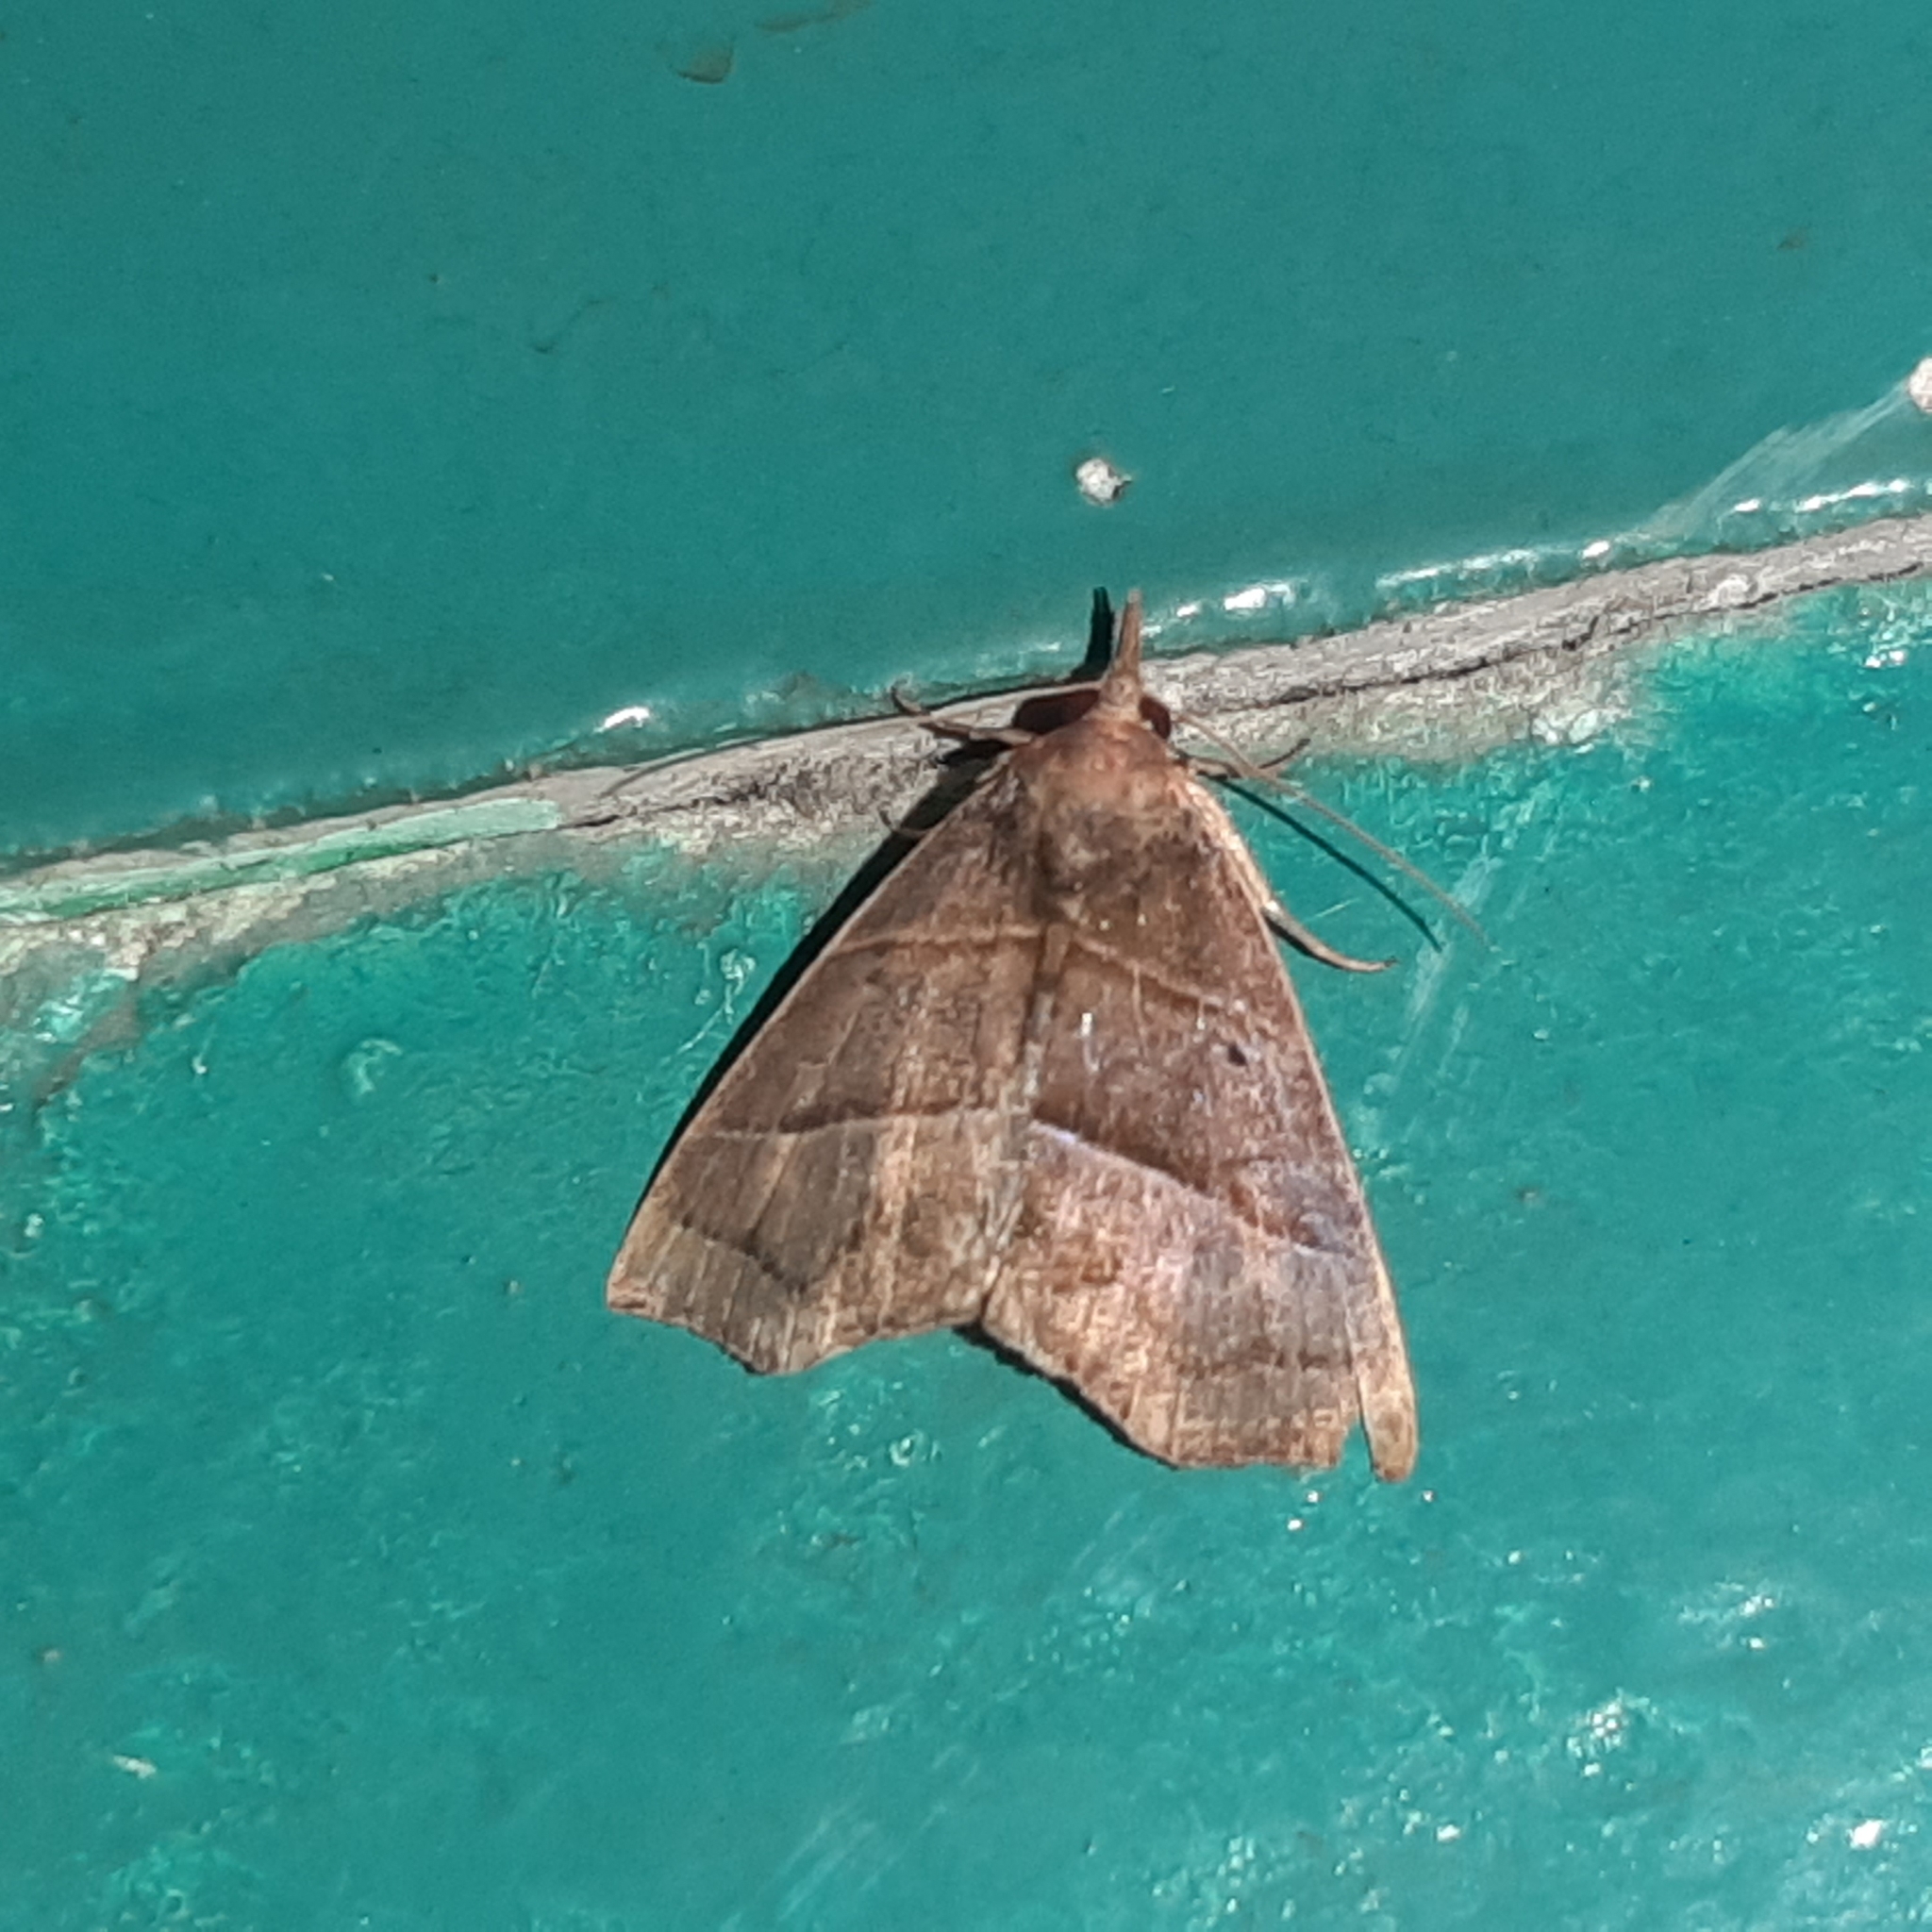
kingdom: Animalia
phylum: Arthropoda
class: Insecta
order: Lepidoptera
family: Erebidae
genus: Hypena
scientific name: Hypena lollia
